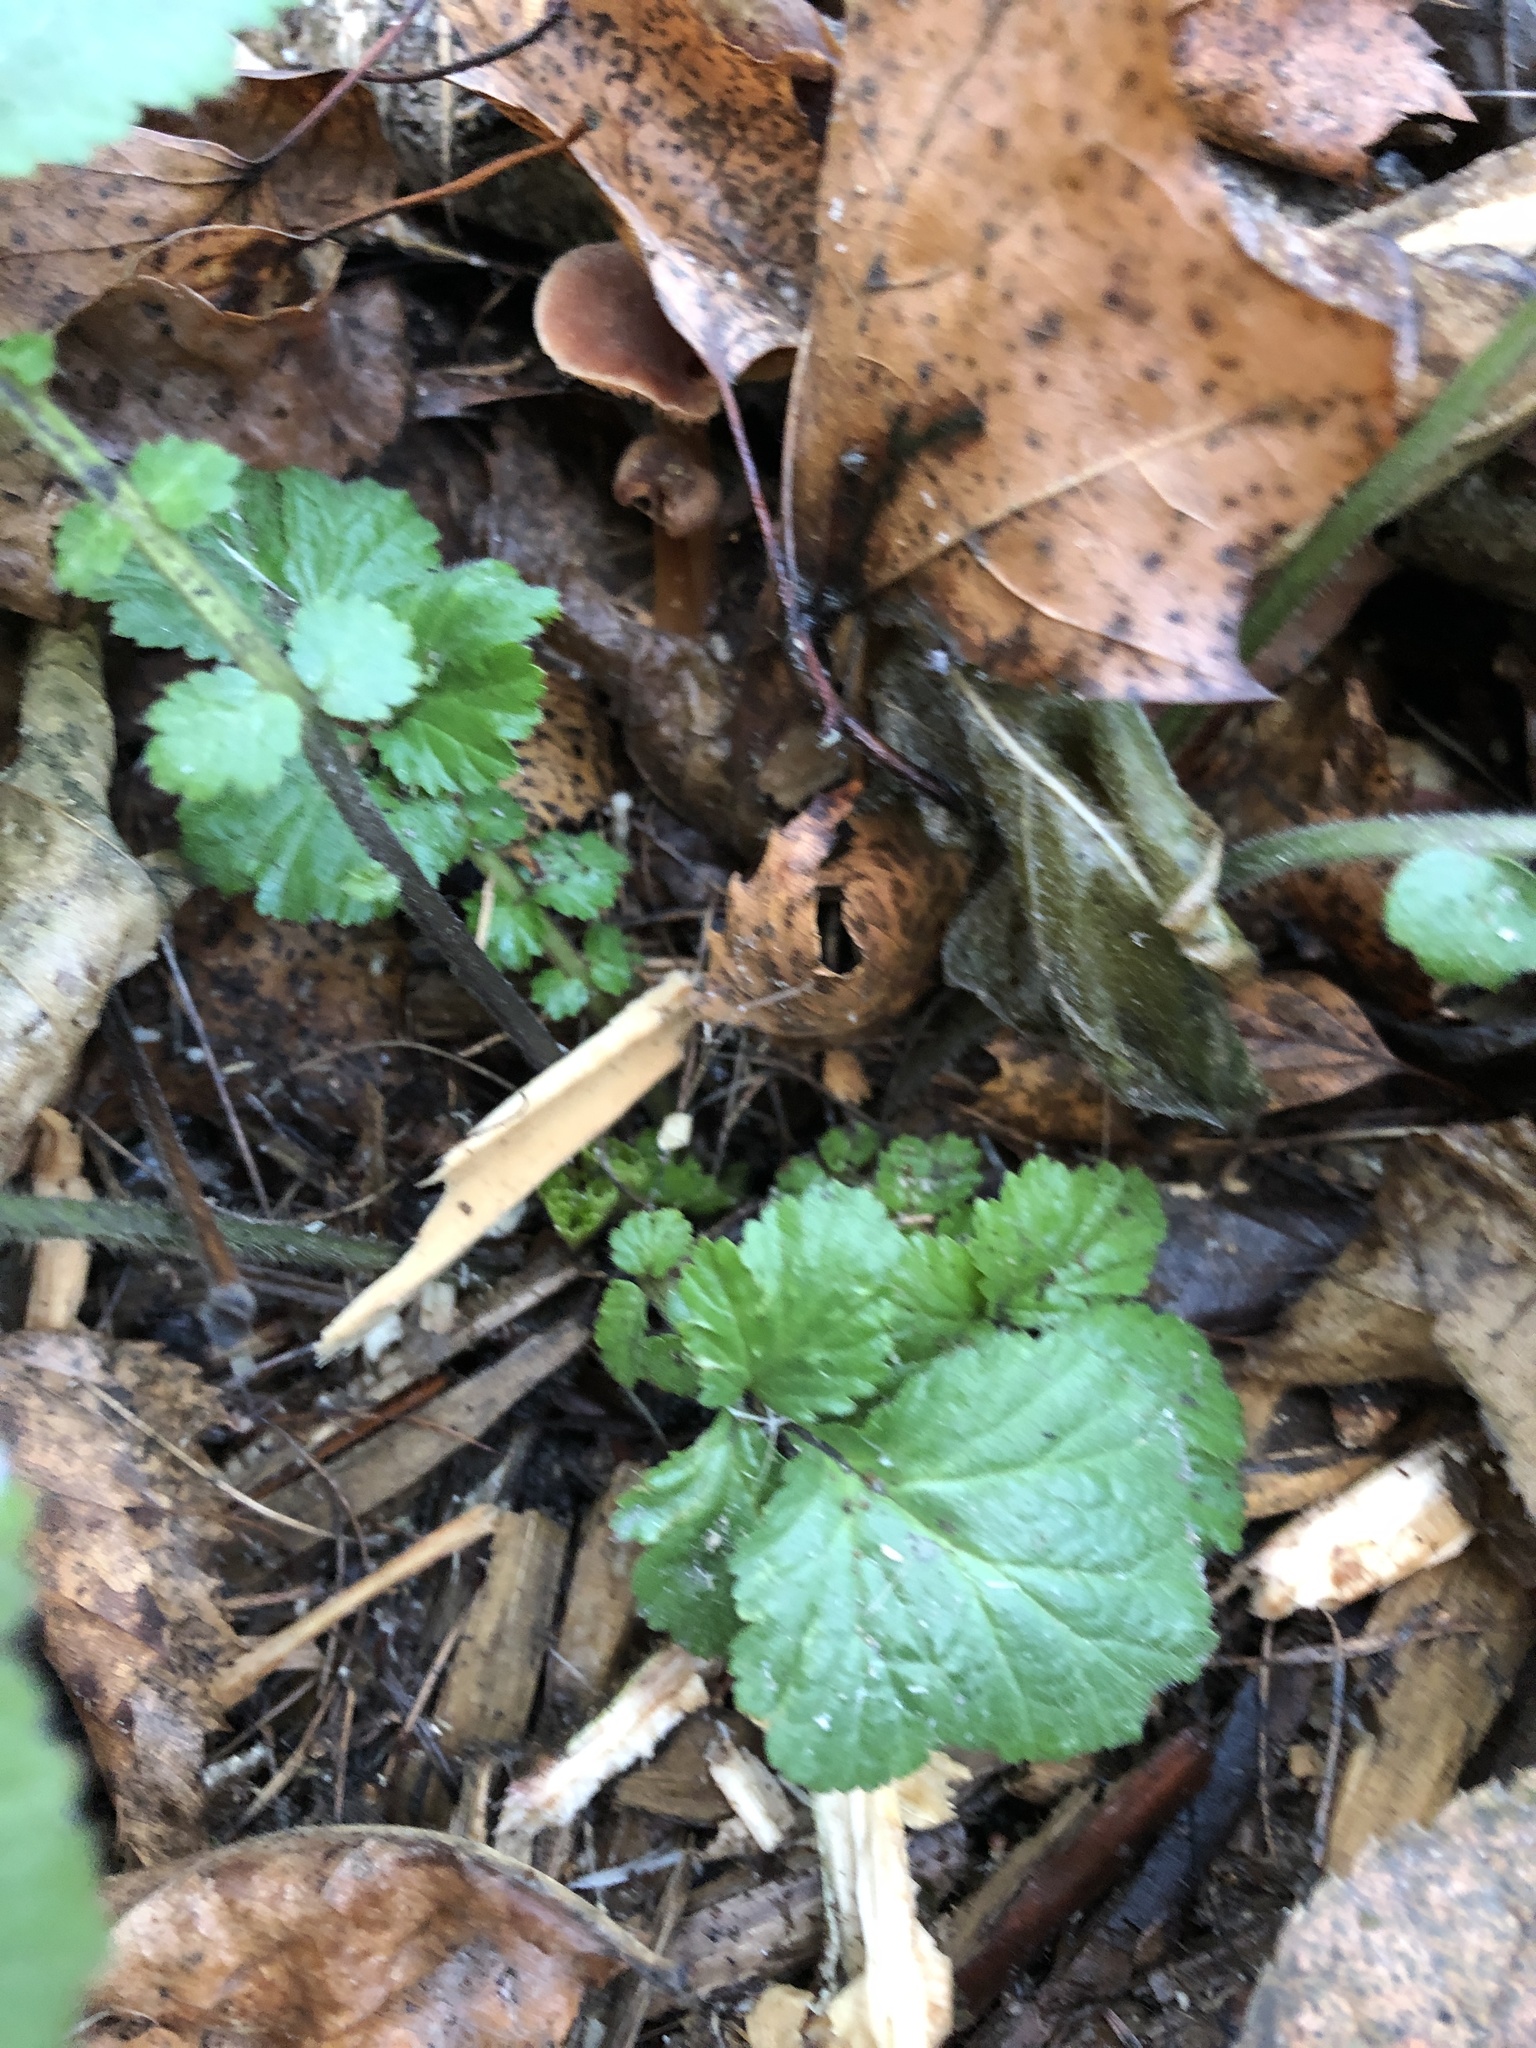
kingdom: Plantae
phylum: Tracheophyta
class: Magnoliopsida
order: Rosales
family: Rosaceae
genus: Geum
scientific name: Geum
